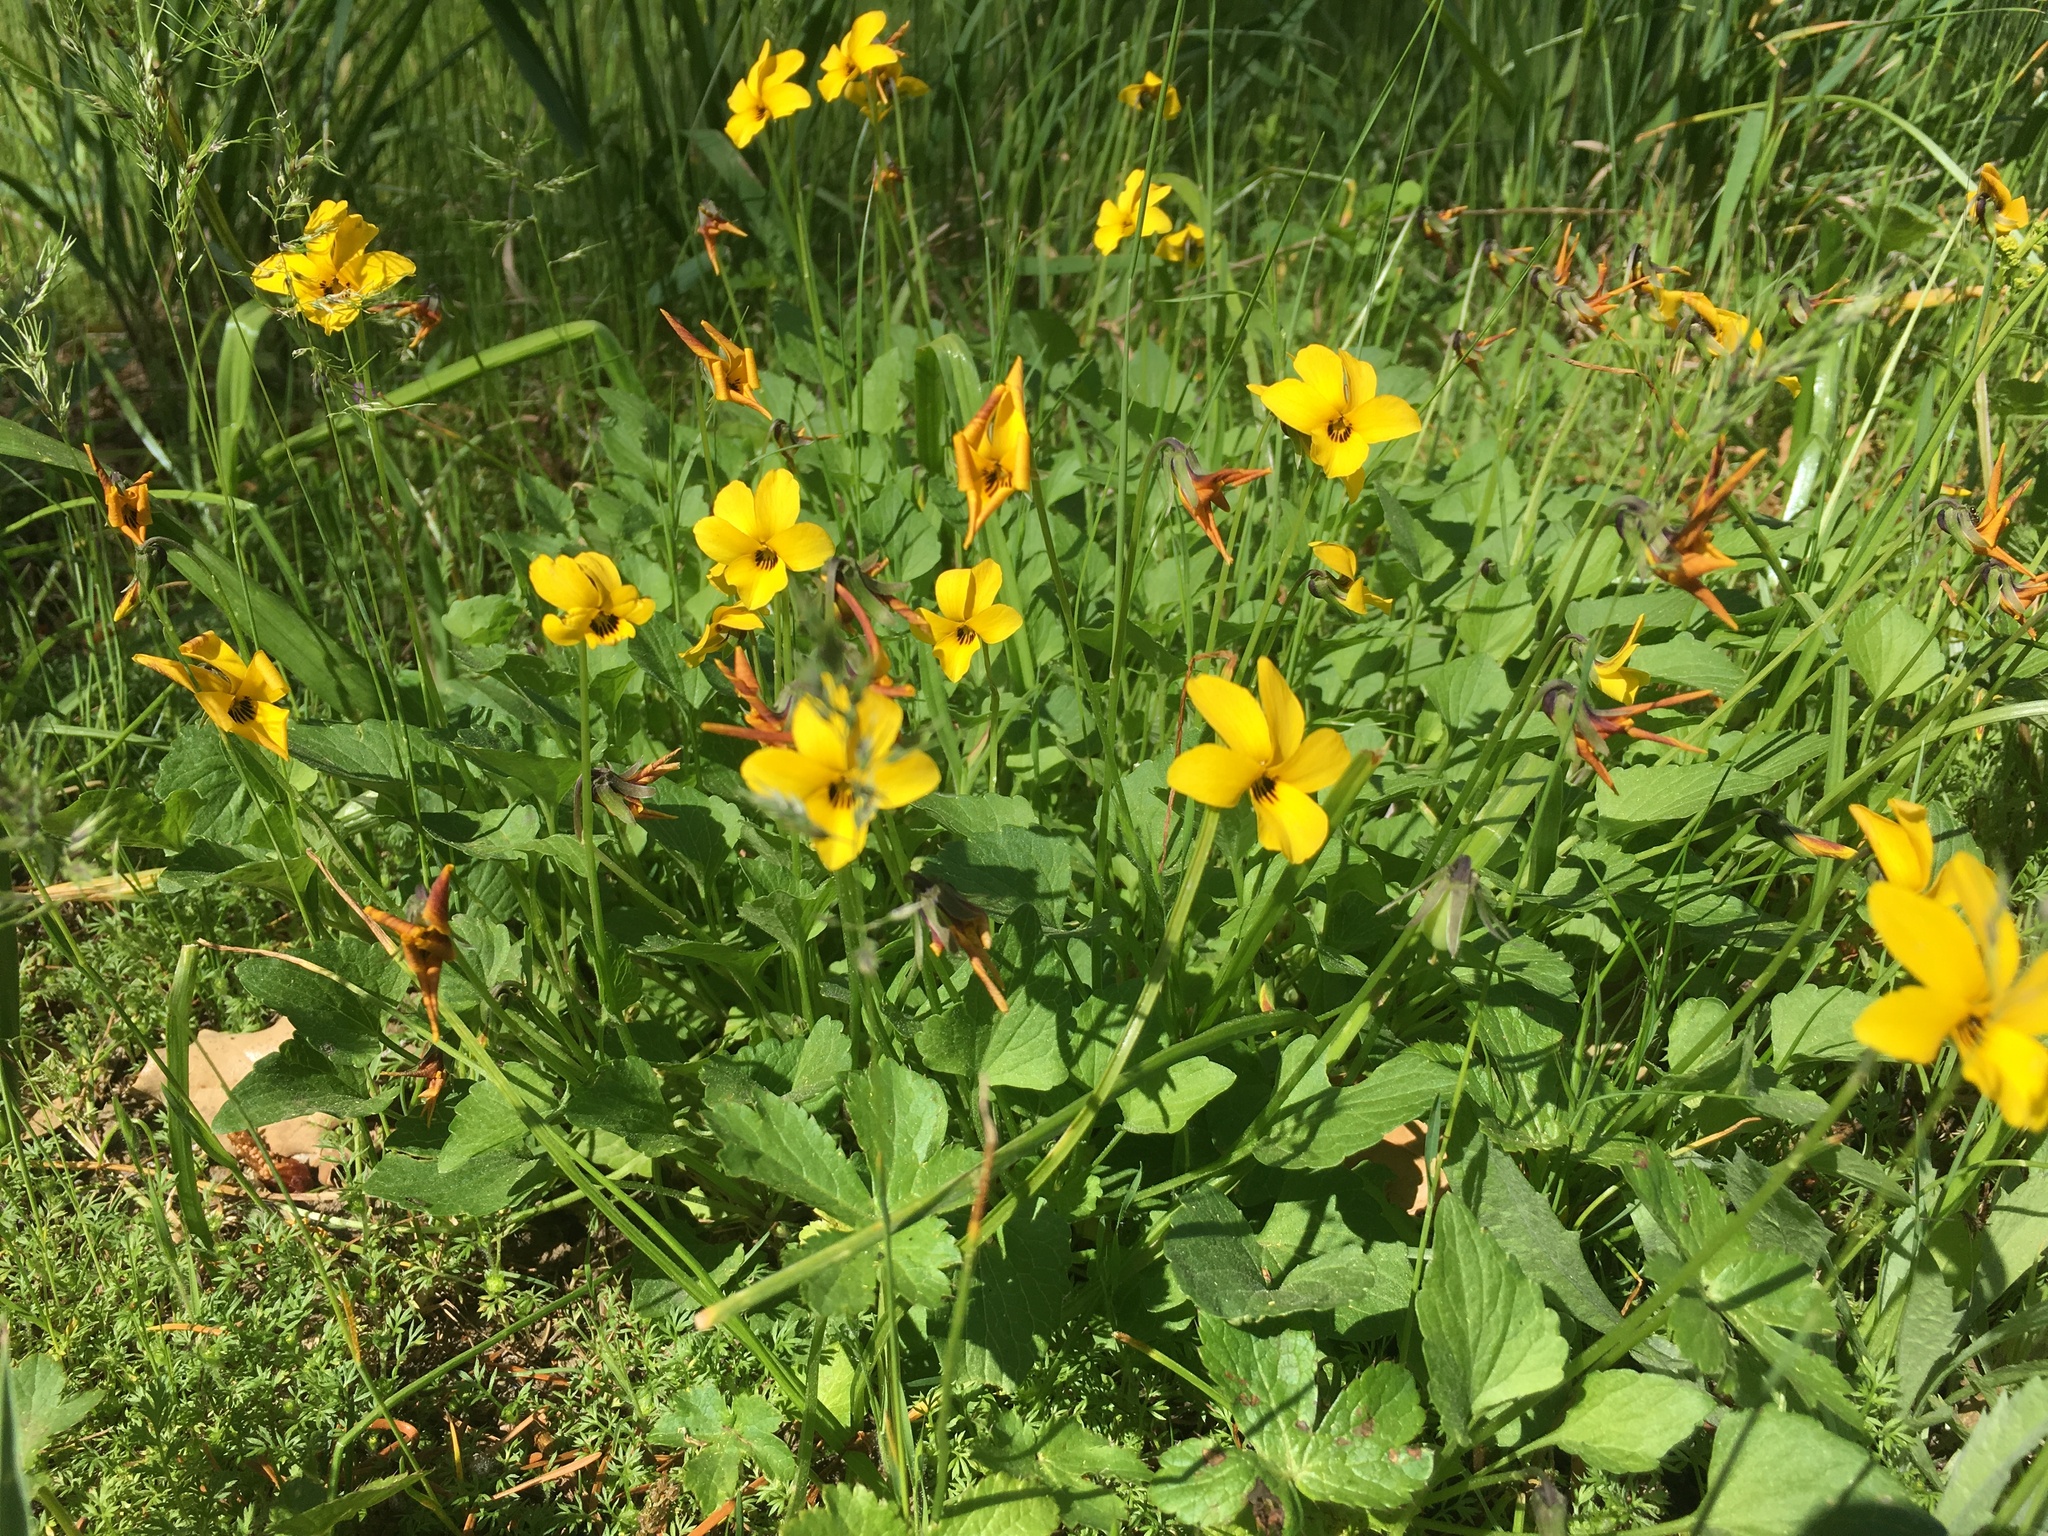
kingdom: Plantae
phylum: Tracheophyta
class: Magnoliopsida
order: Malpighiales
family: Violaceae
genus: Viola
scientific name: Viola pedunculata
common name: California golden violet
